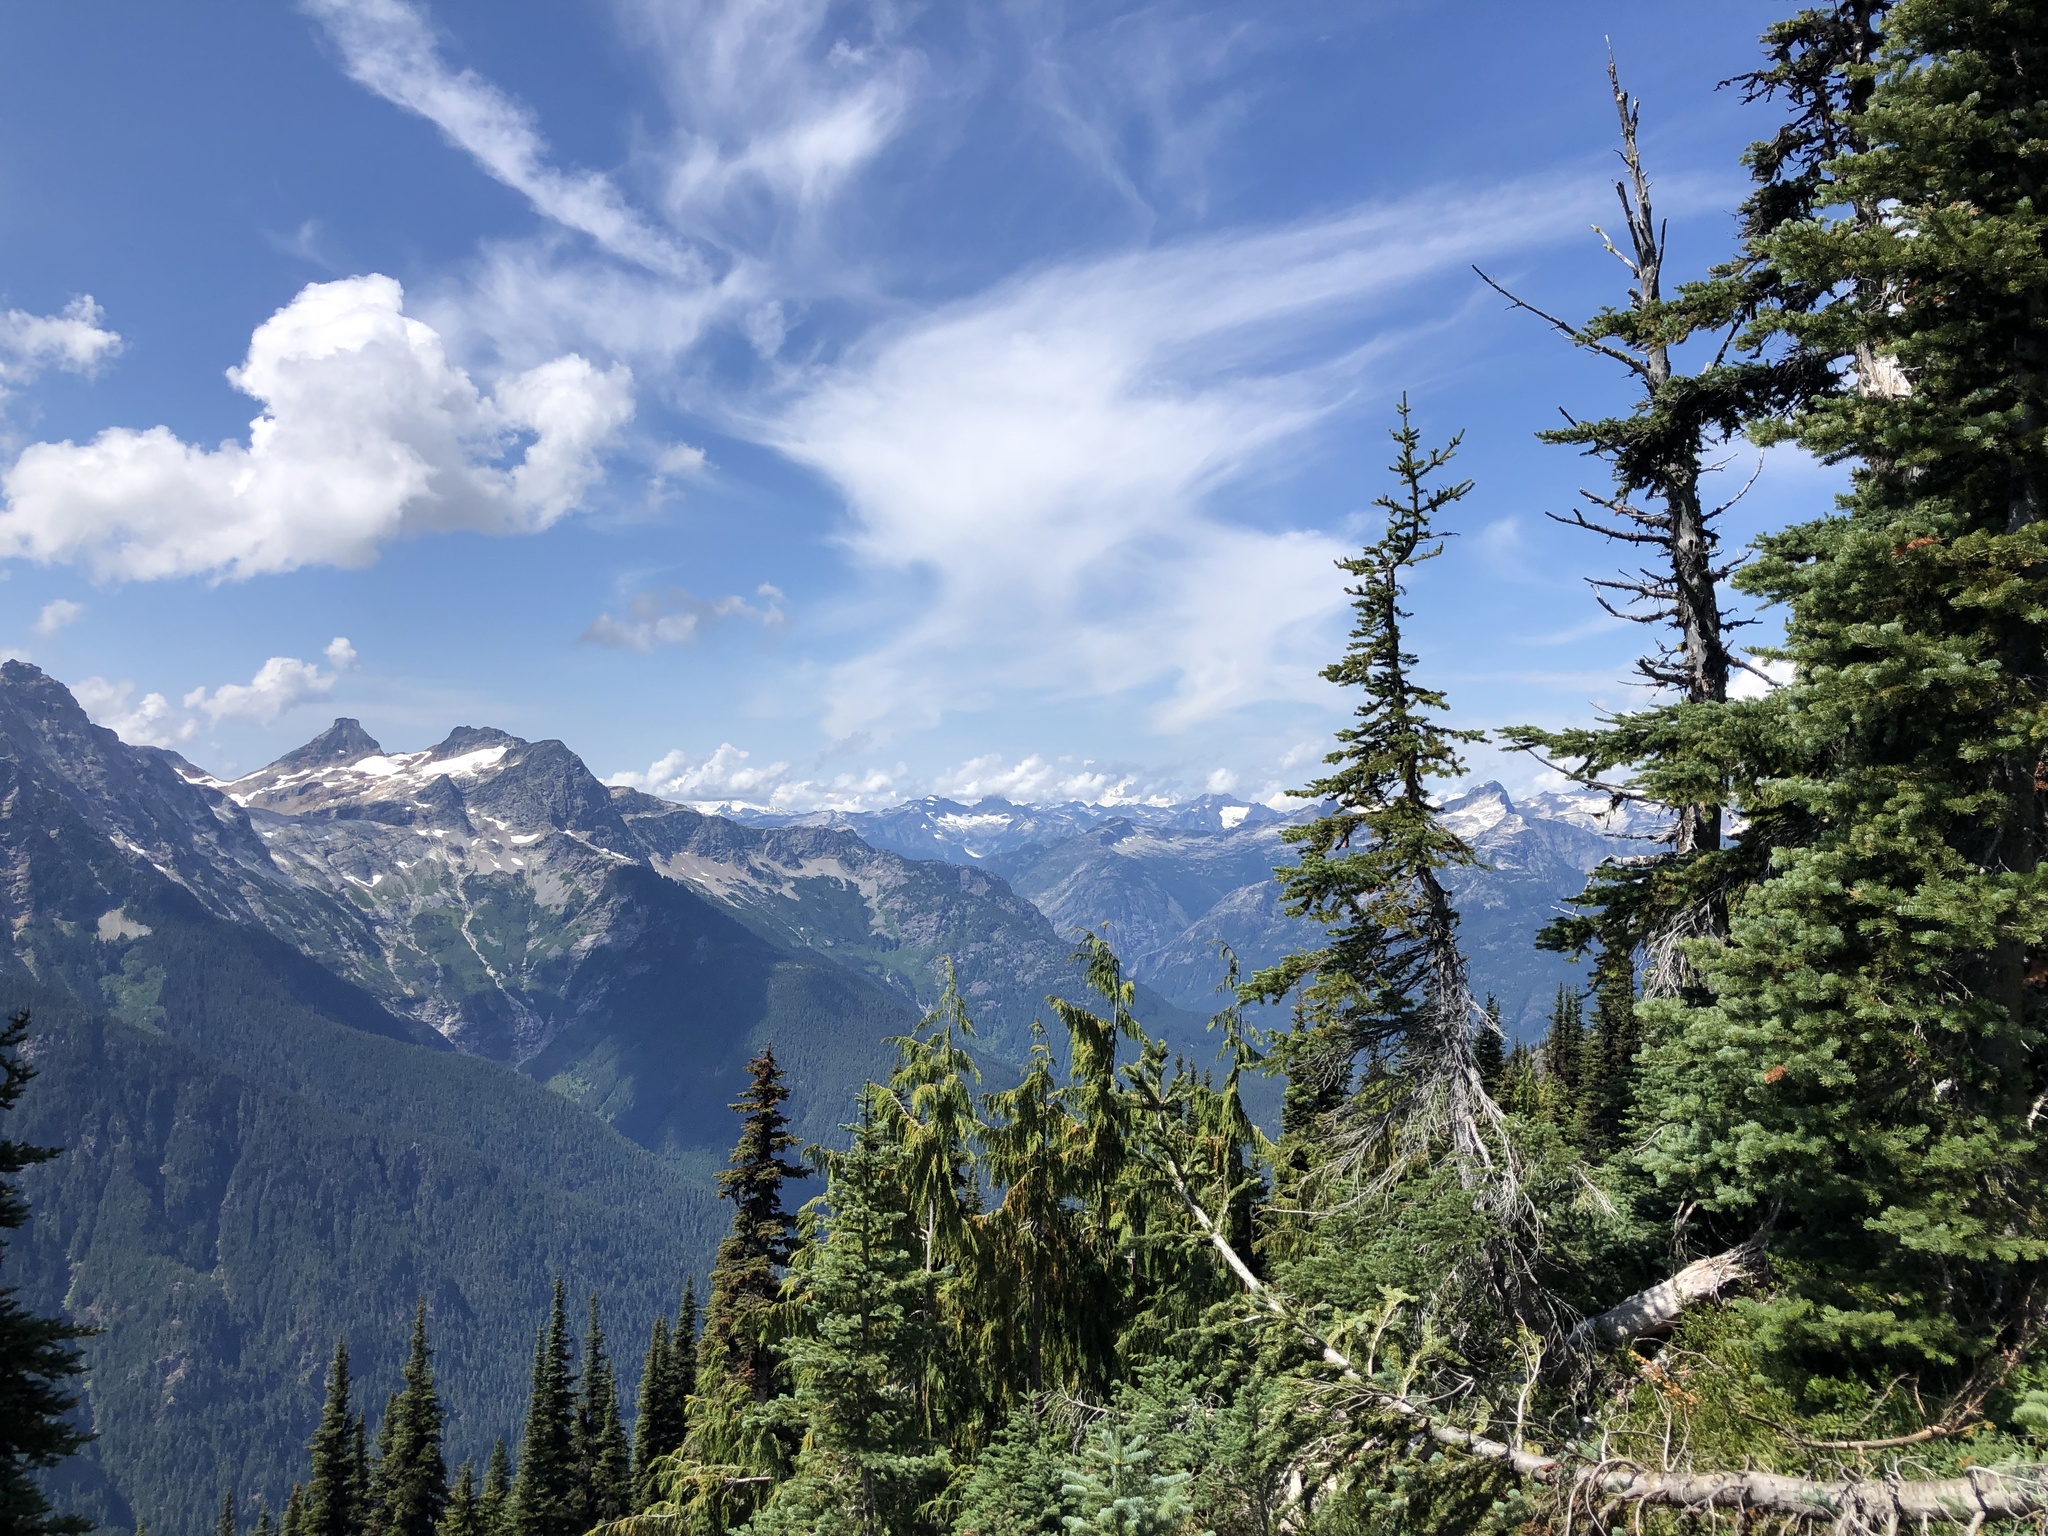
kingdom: Plantae
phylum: Tracheophyta
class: Pinopsida
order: Pinales
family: Cupressaceae
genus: Xanthocyparis
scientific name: Xanthocyparis nootkatensis
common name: Nootka cypress
